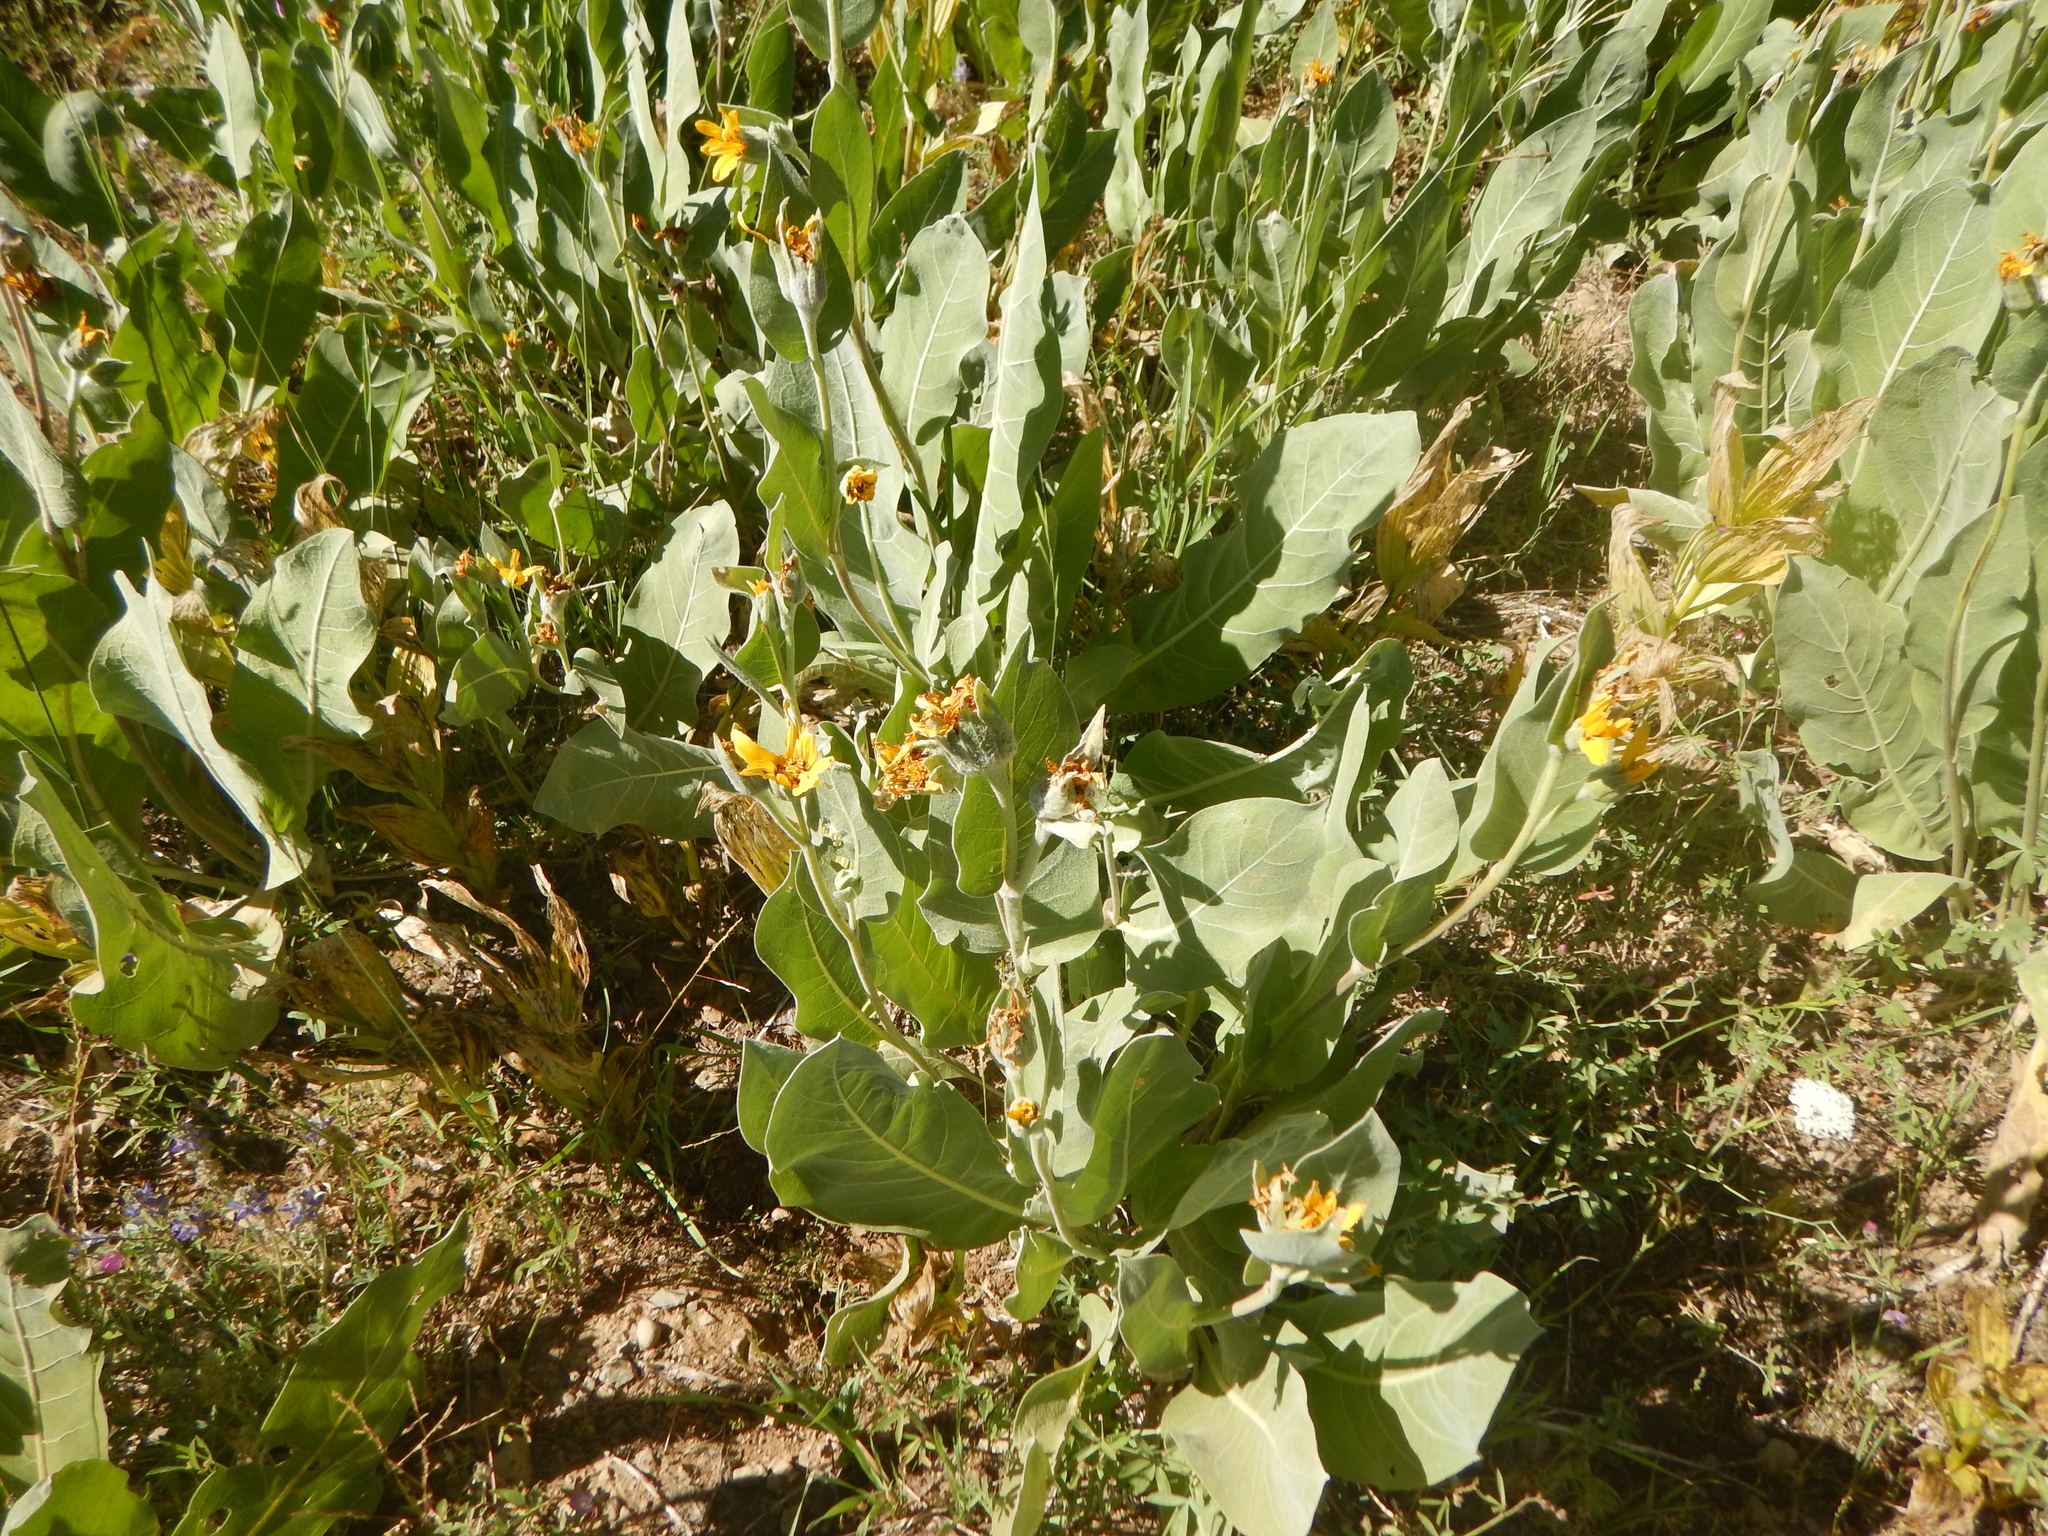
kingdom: Plantae
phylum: Tracheophyta
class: Magnoliopsida
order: Asterales
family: Asteraceae
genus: Wyethia
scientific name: Wyethia mollis
